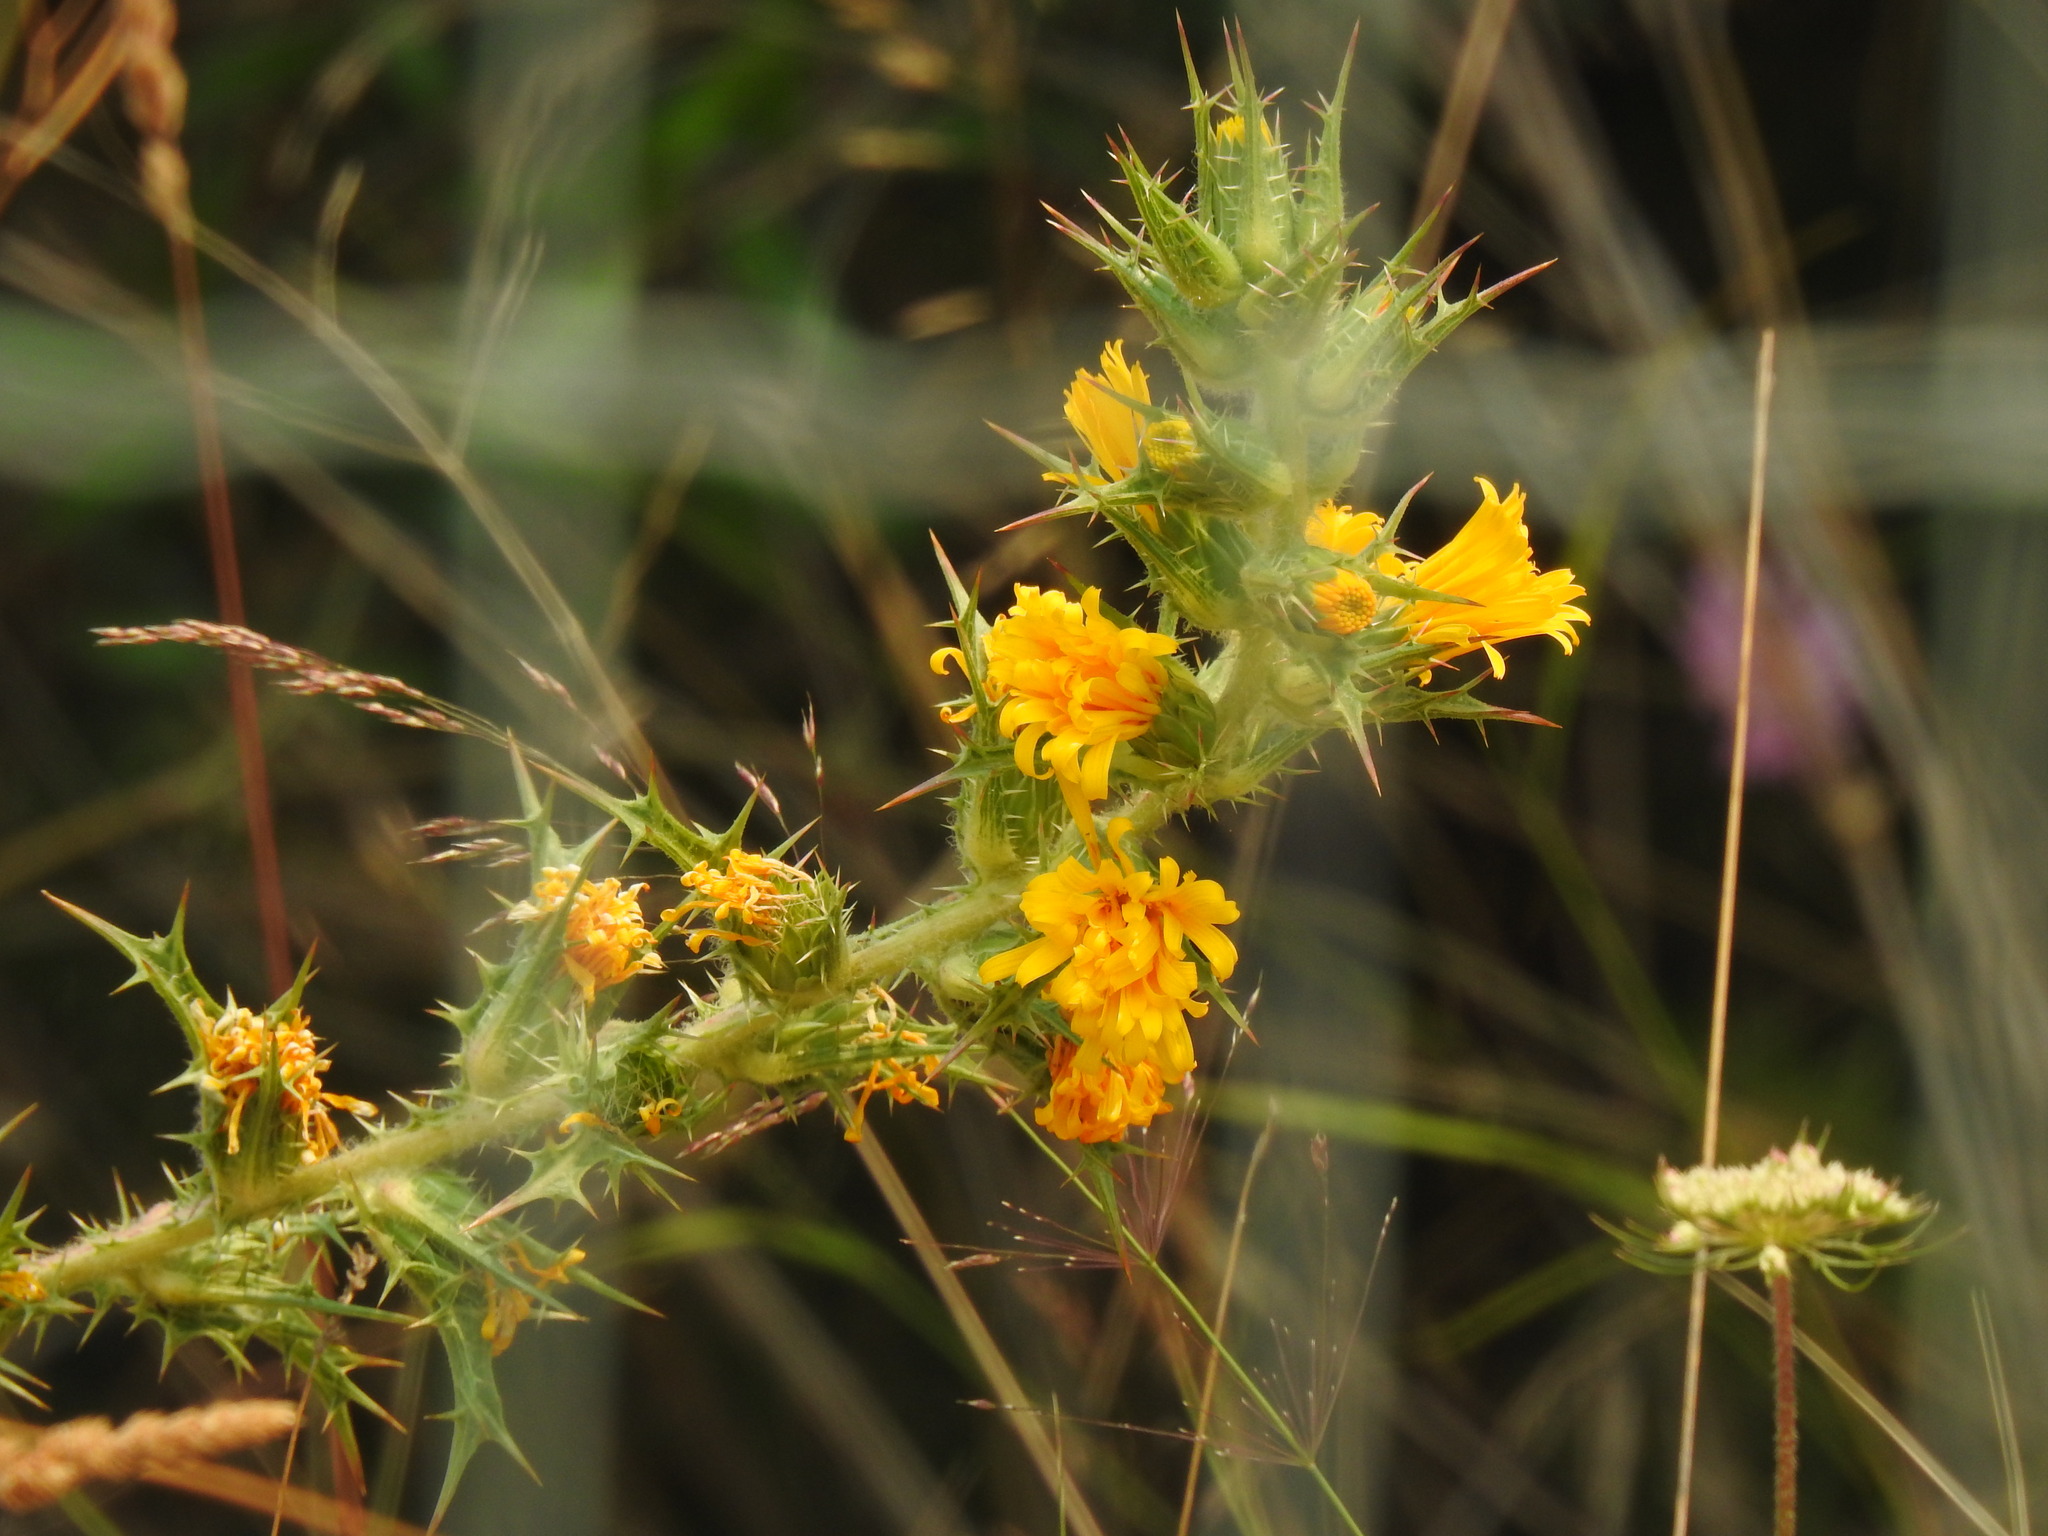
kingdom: Plantae
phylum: Tracheophyta
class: Magnoliopsida
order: Asterales
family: Asteraceae
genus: Scolymus
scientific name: Scolymus hispanicus
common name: Golden thistle
